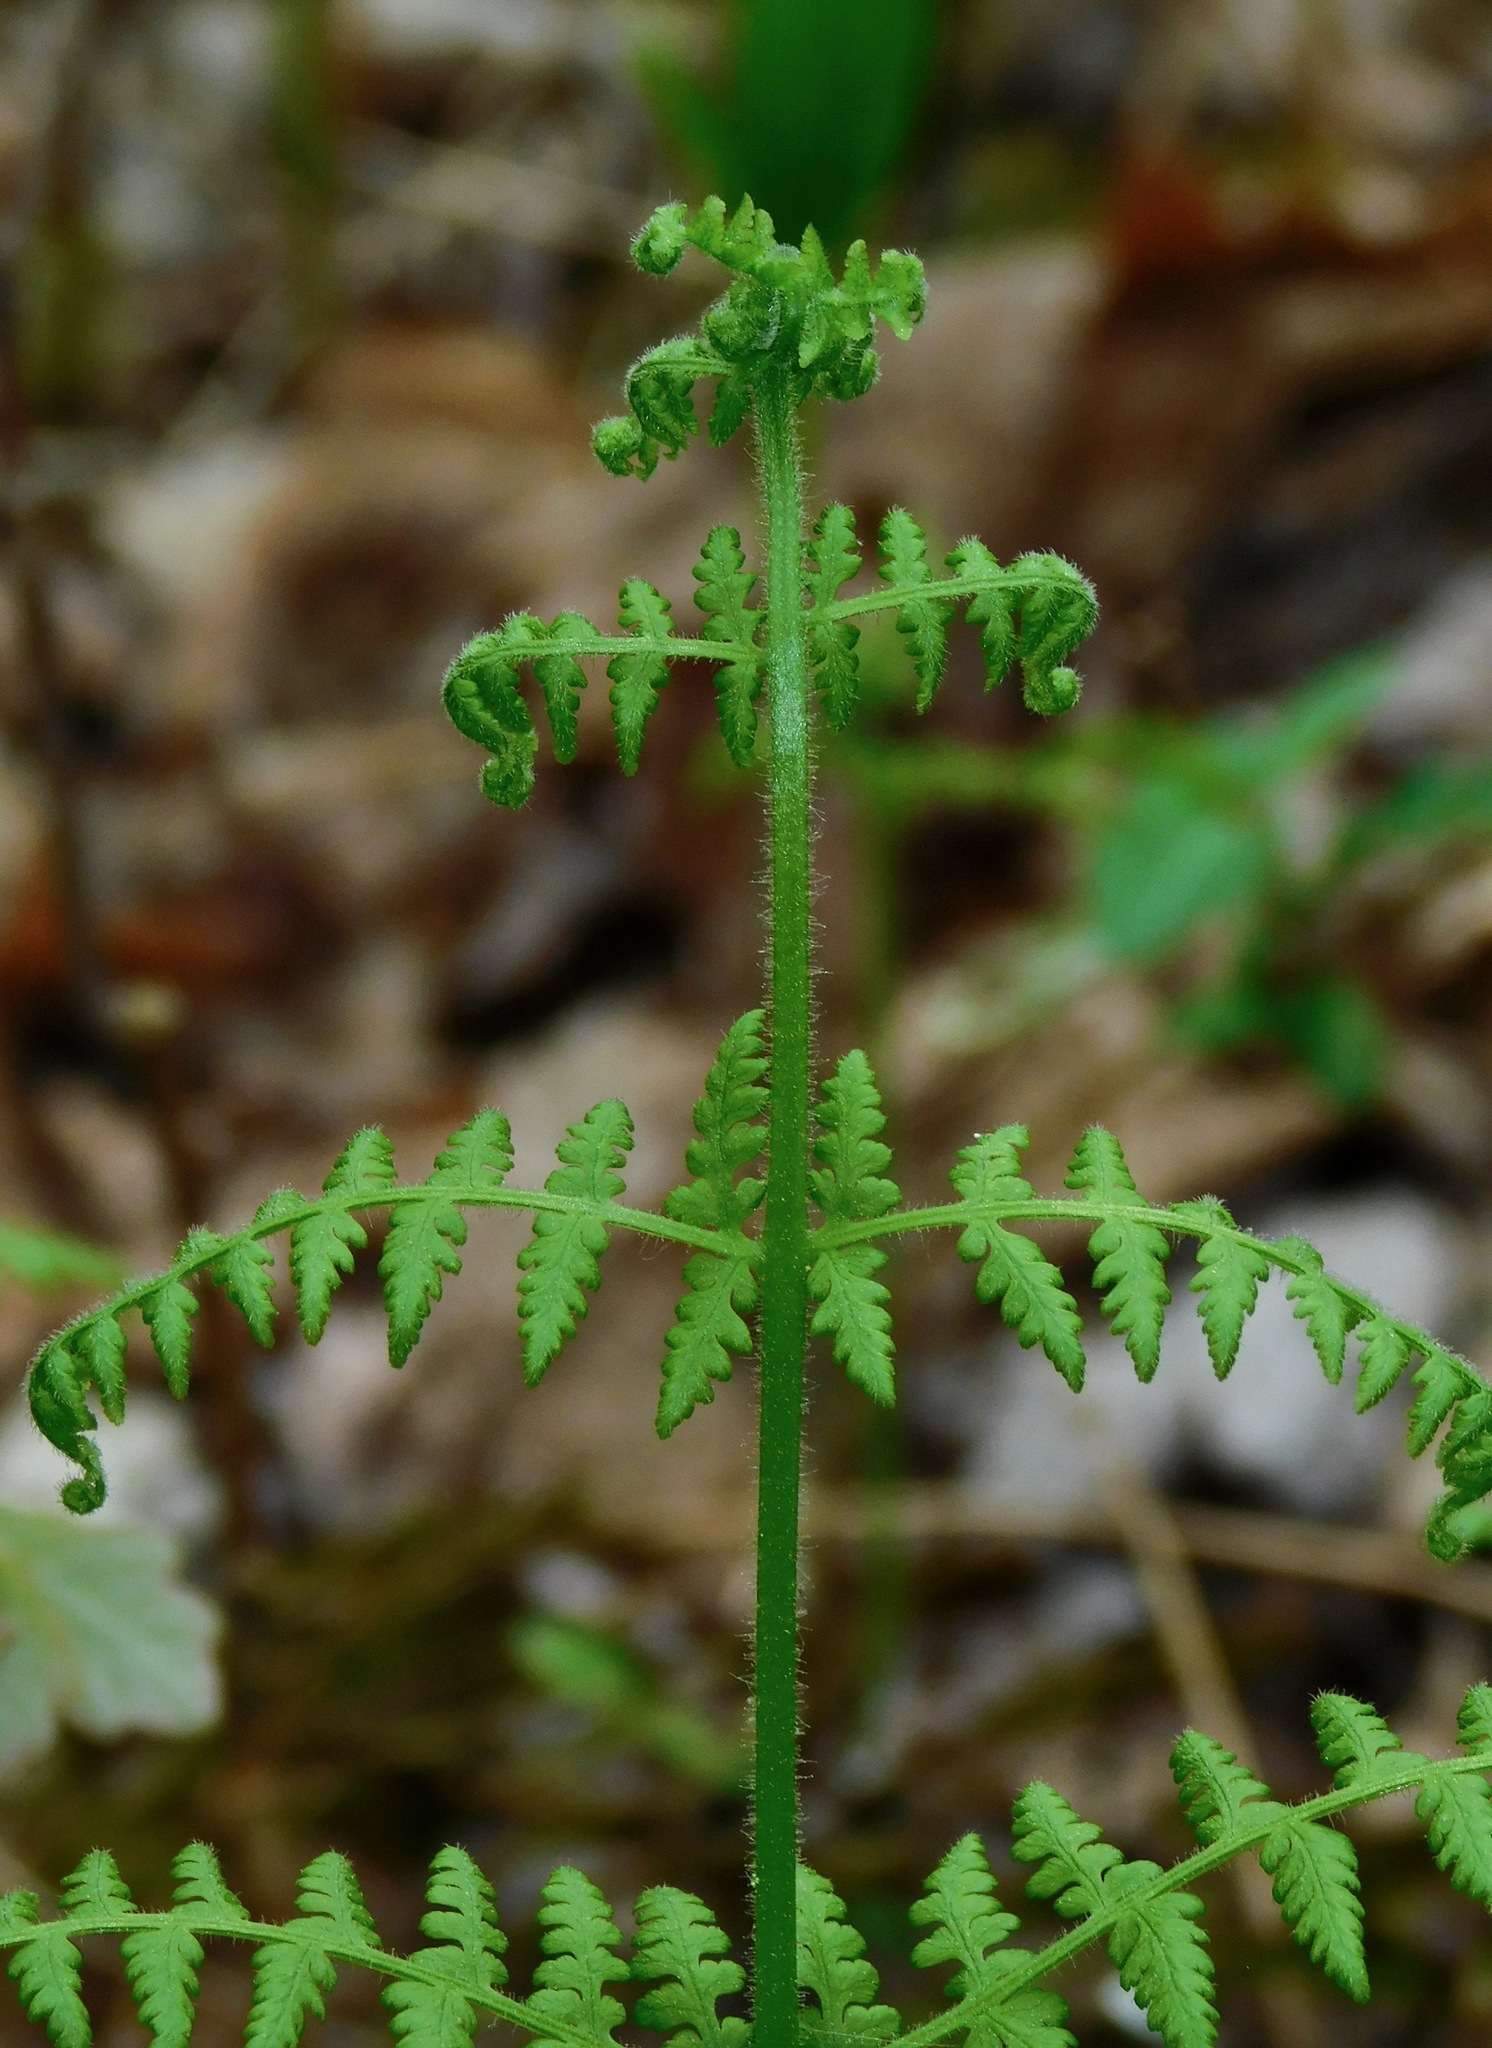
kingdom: Plantae
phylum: Tracheophyta
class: Polypodiopsida
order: Polypodiales
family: Dennstaedtiaceae
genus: Sitobolium
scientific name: Sitobolium punctilobum
